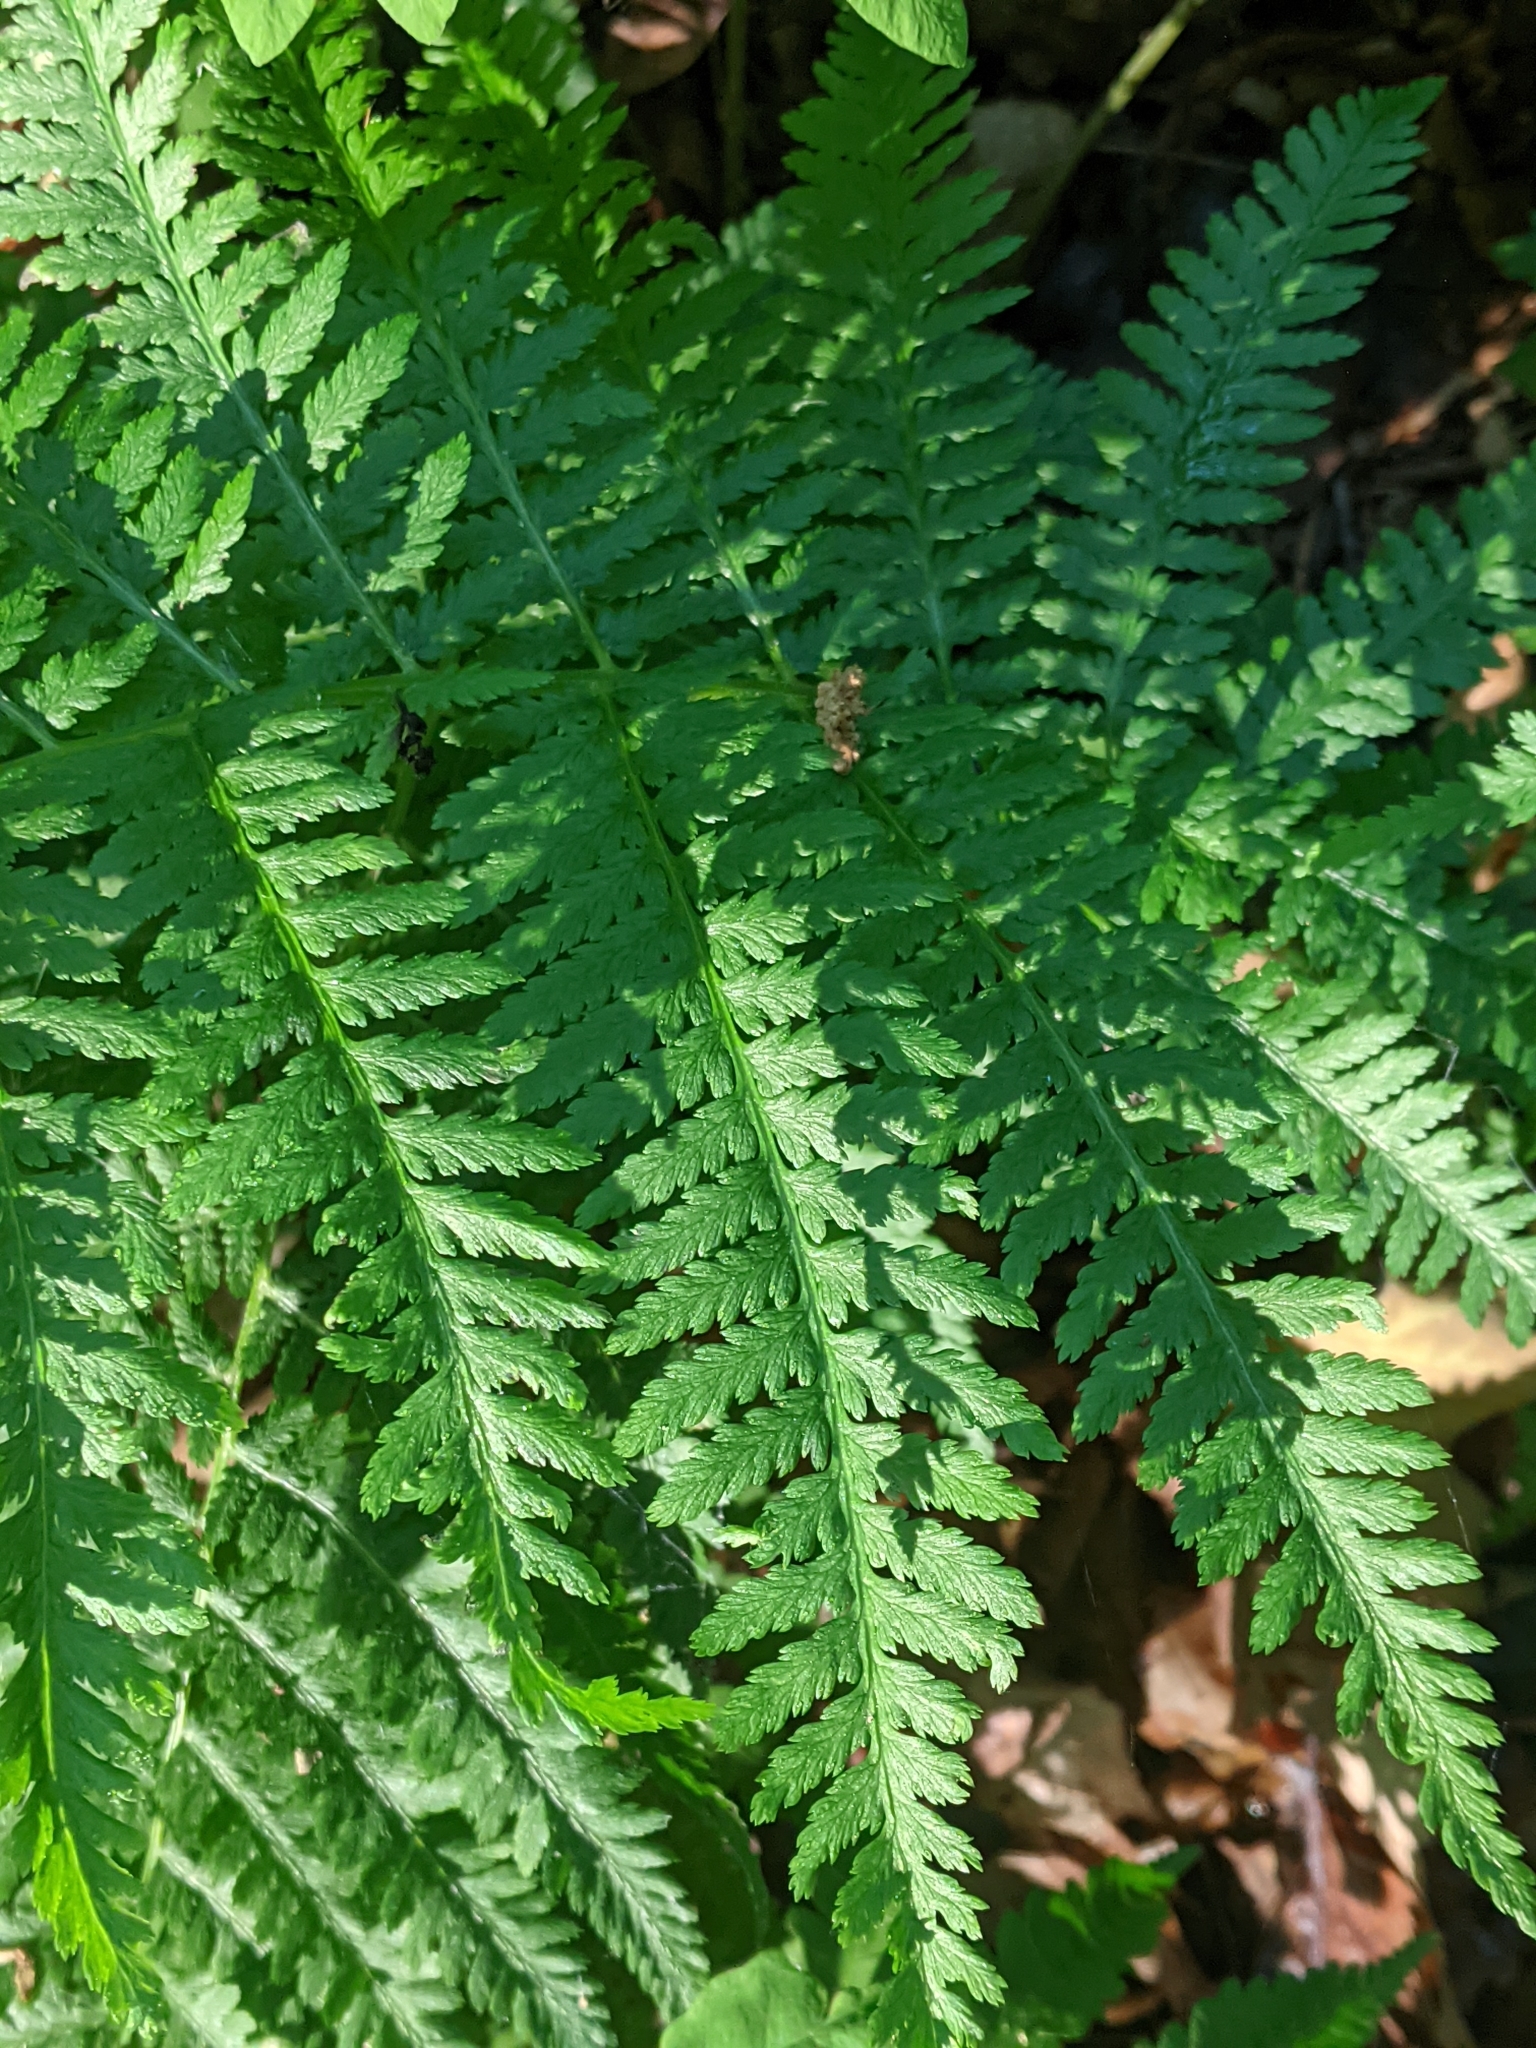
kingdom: Plantae
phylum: Tracheophyta
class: Polypodiopsida
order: Polypodiales
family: Athyriaceae
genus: Athyrium
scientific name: Athyrium angustum
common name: Northern lady fern
